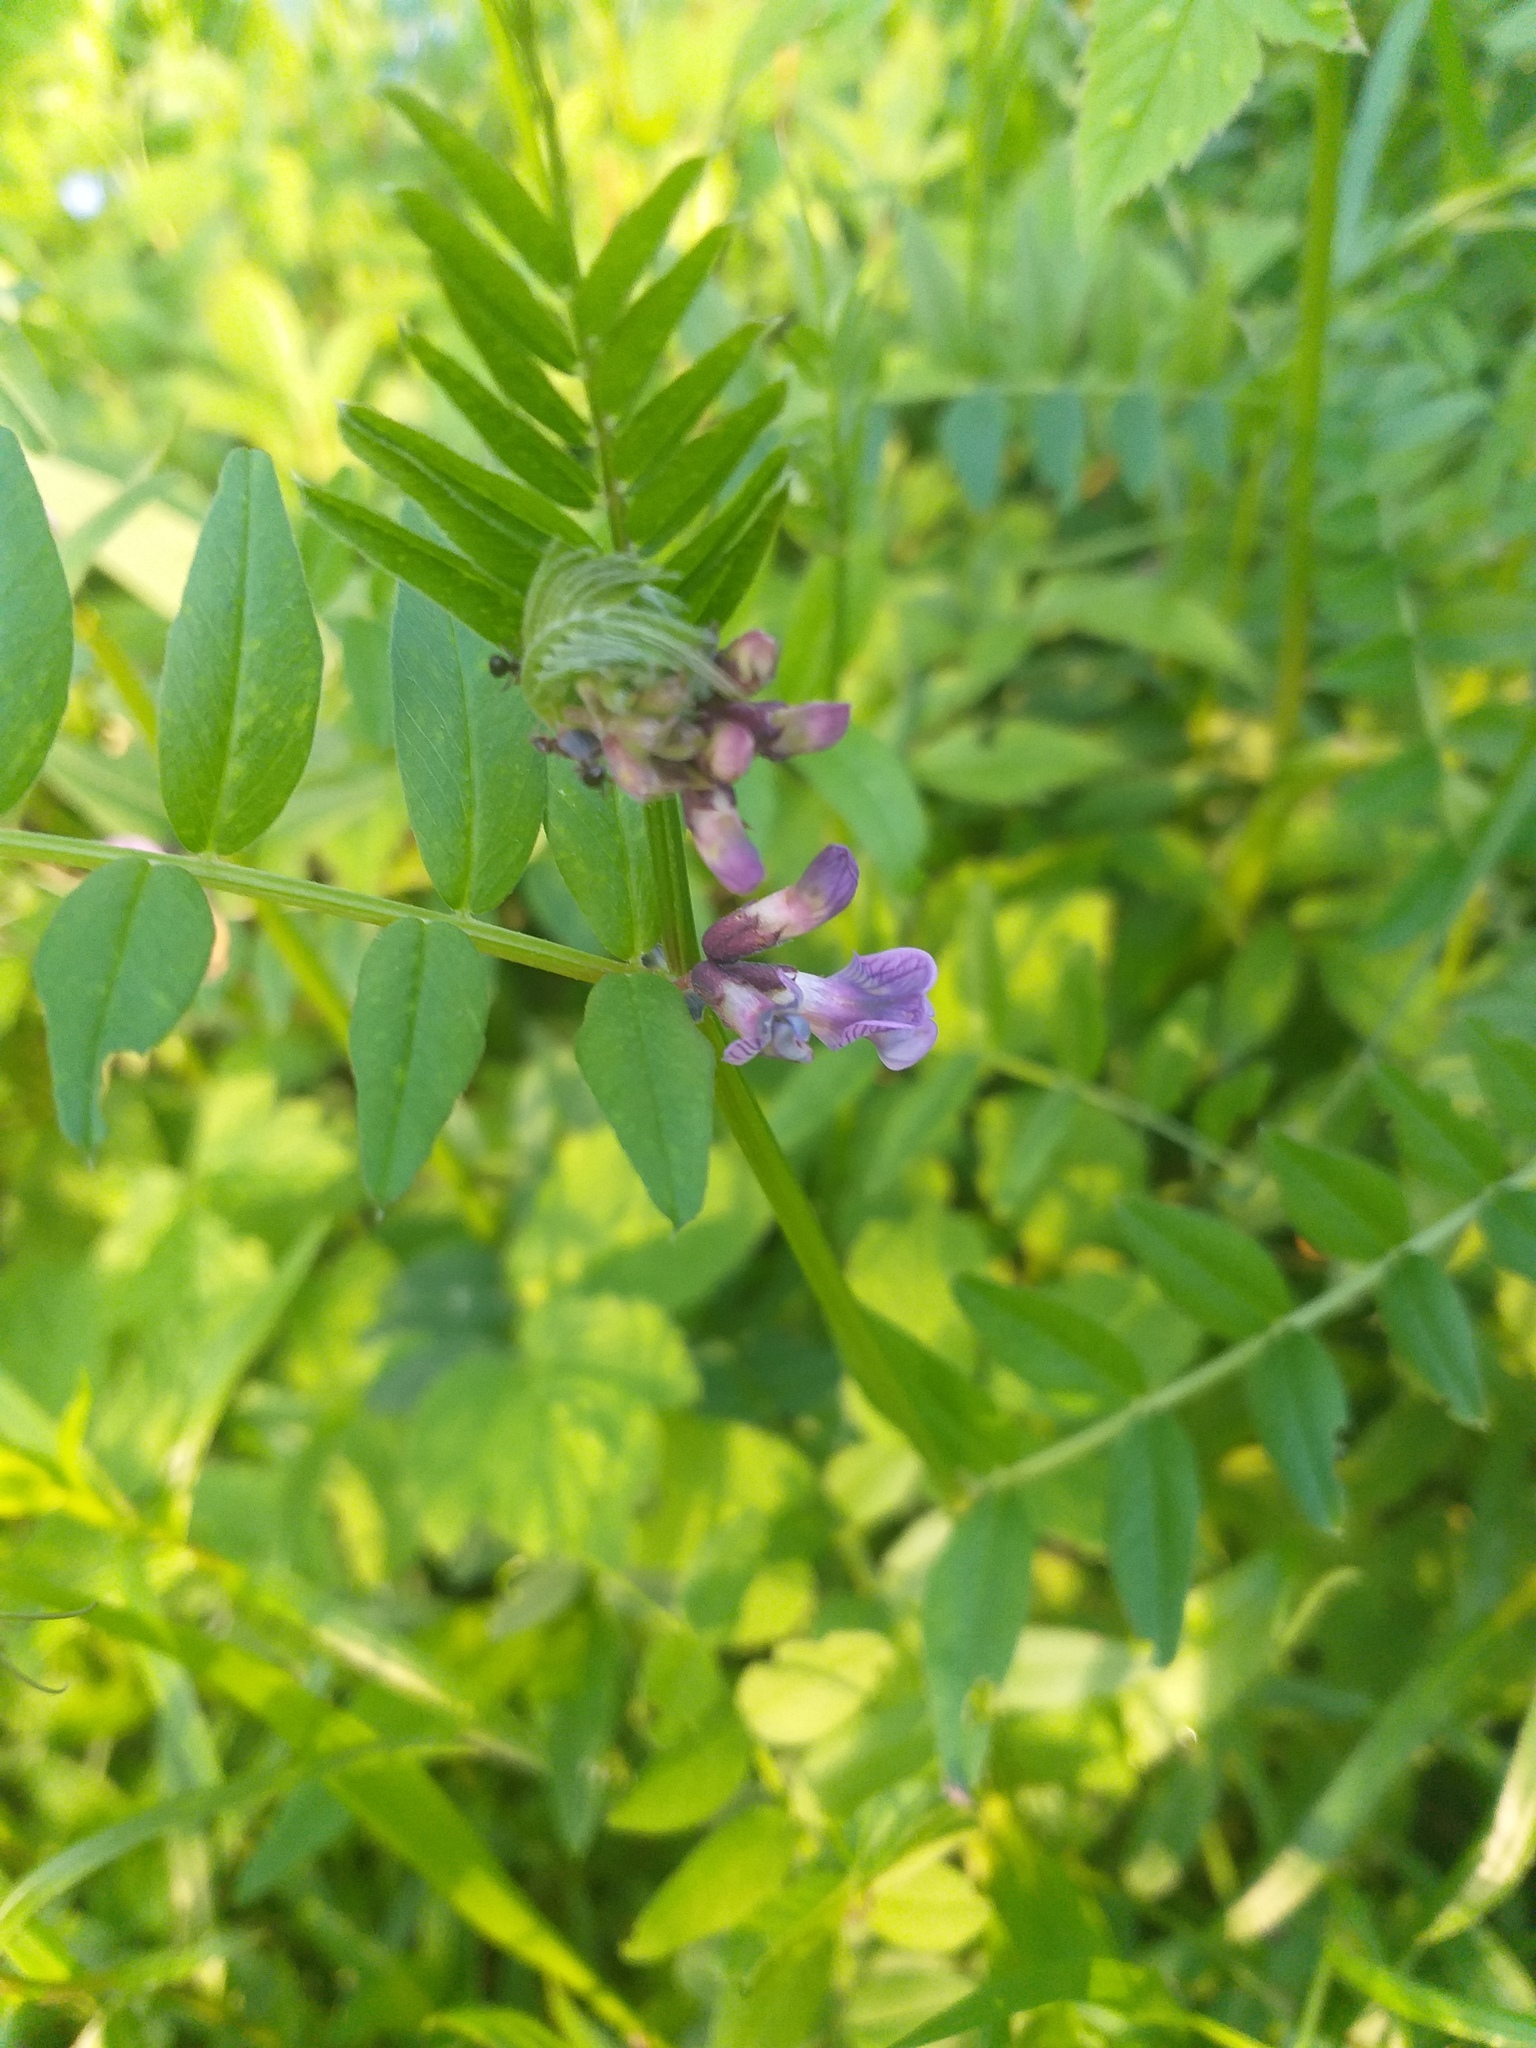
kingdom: Plantae
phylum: Tracheophyta
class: Magnoliopsida
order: Fabales
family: Fabaceae
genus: Vicia
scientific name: Vicia sepium
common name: Bush vetch
